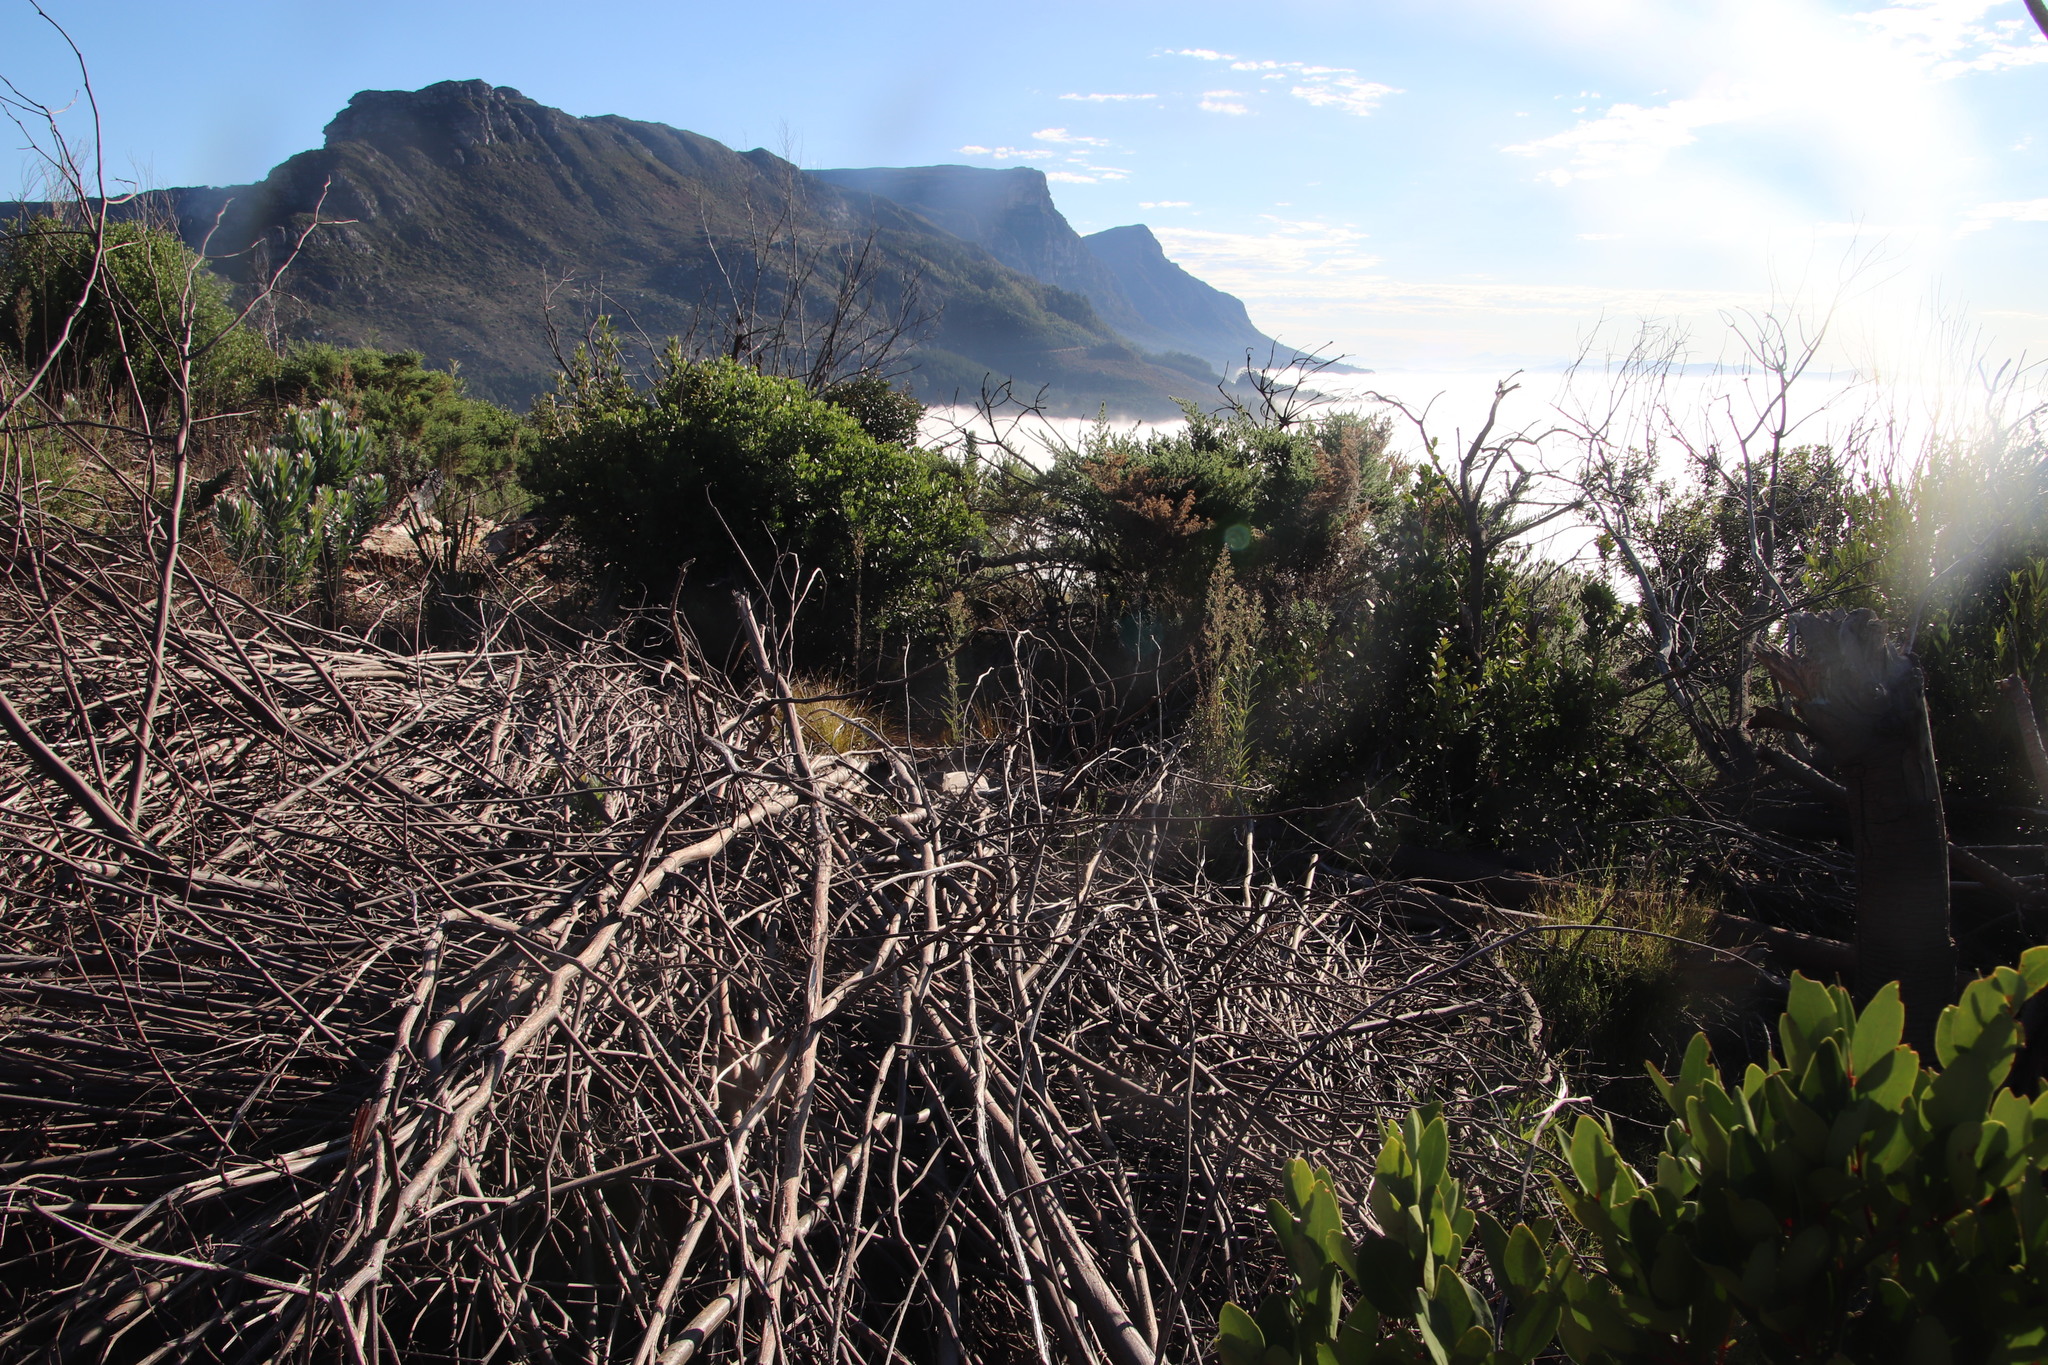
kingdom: Plantae
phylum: Tracheophyta
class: Magnoliopsida
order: Fabales
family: Fabaceae
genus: Paraserianthes
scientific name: Paraserianthes lophantha
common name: Plume albizia
